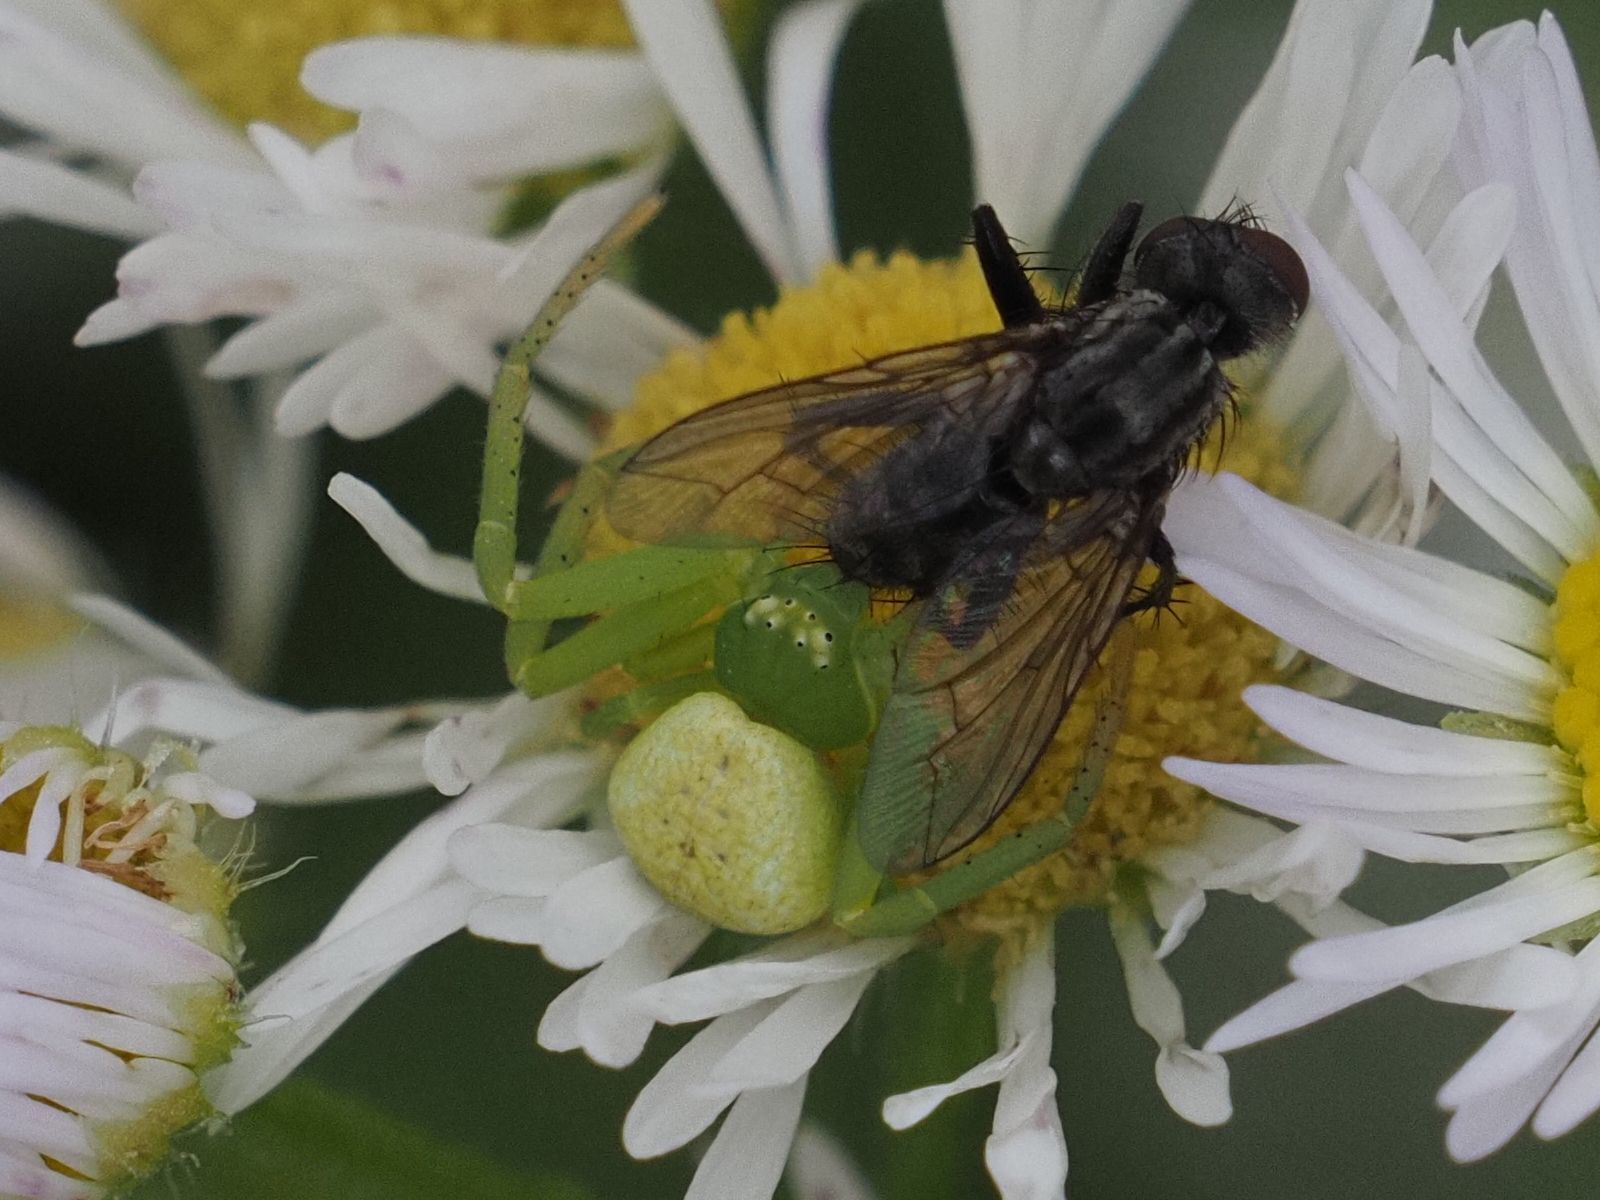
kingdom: Animalia
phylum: Arthropoda
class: Arachnida
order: Araneae
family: Thomisidae
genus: Ebrechtella
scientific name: Ebrechtella tricuspidata
